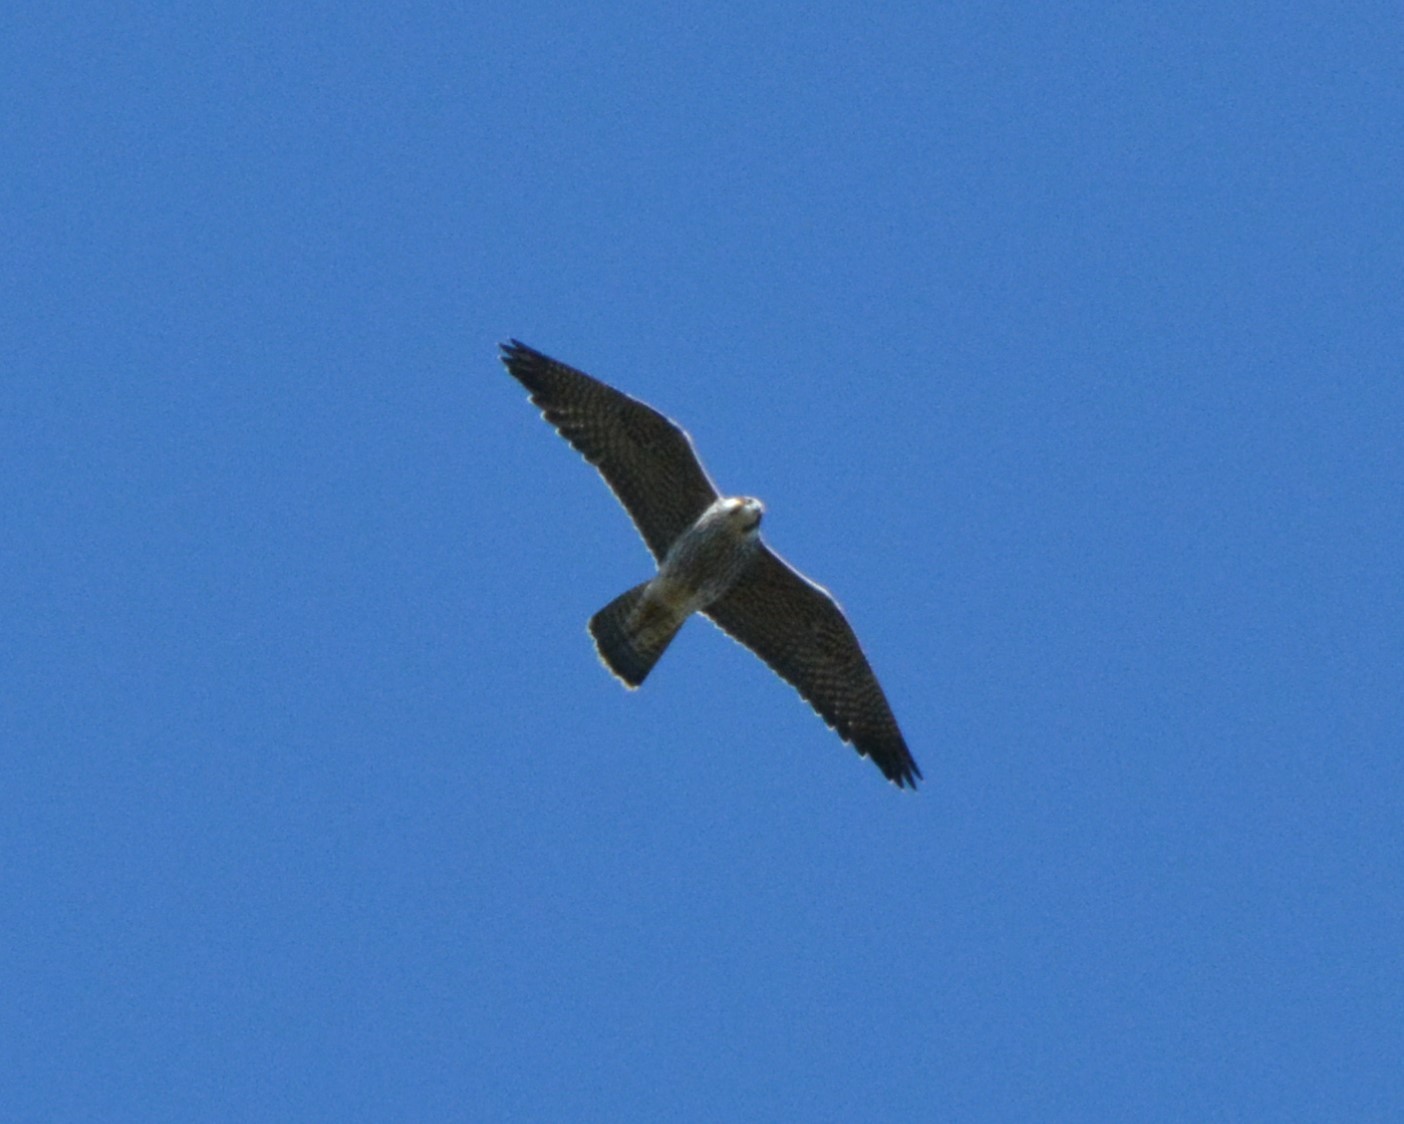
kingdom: Animalia
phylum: Chordata
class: Aves
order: Falconiformes
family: Falconidae
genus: Falco
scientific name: Falco peregrinus
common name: Peregrine falcon
